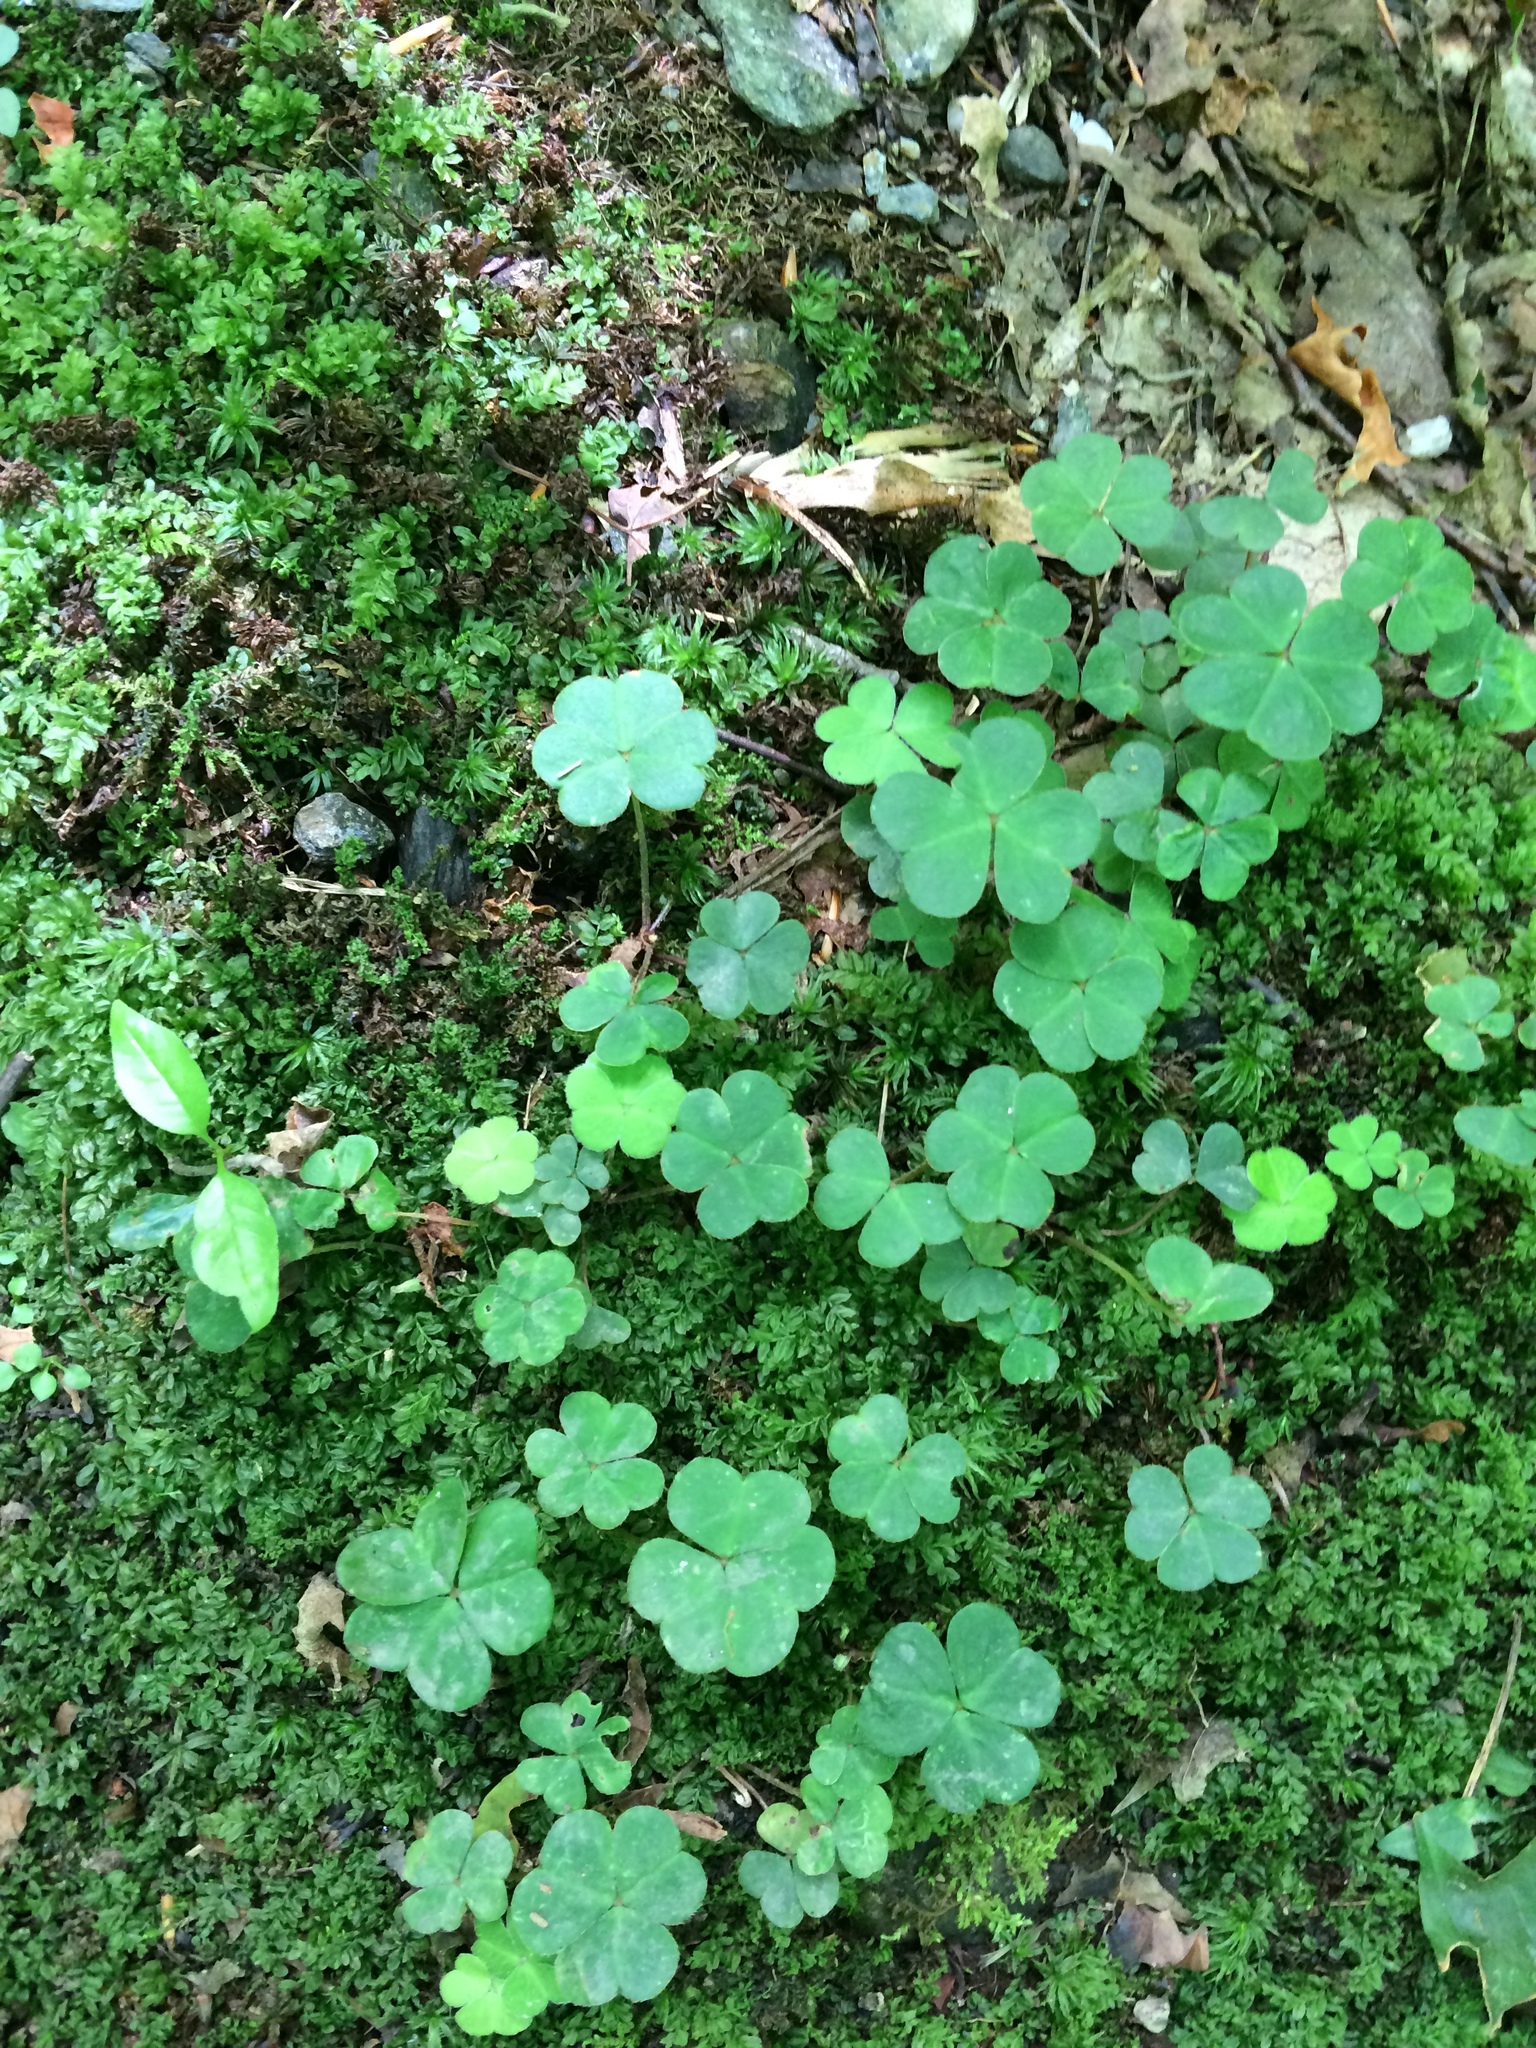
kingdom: Plantae
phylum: Tracheophyta
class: Magnoliopsida
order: Oxalidales
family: Oxalidaceae
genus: Oxalis
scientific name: Oxalis montana
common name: American wood-sorrel
